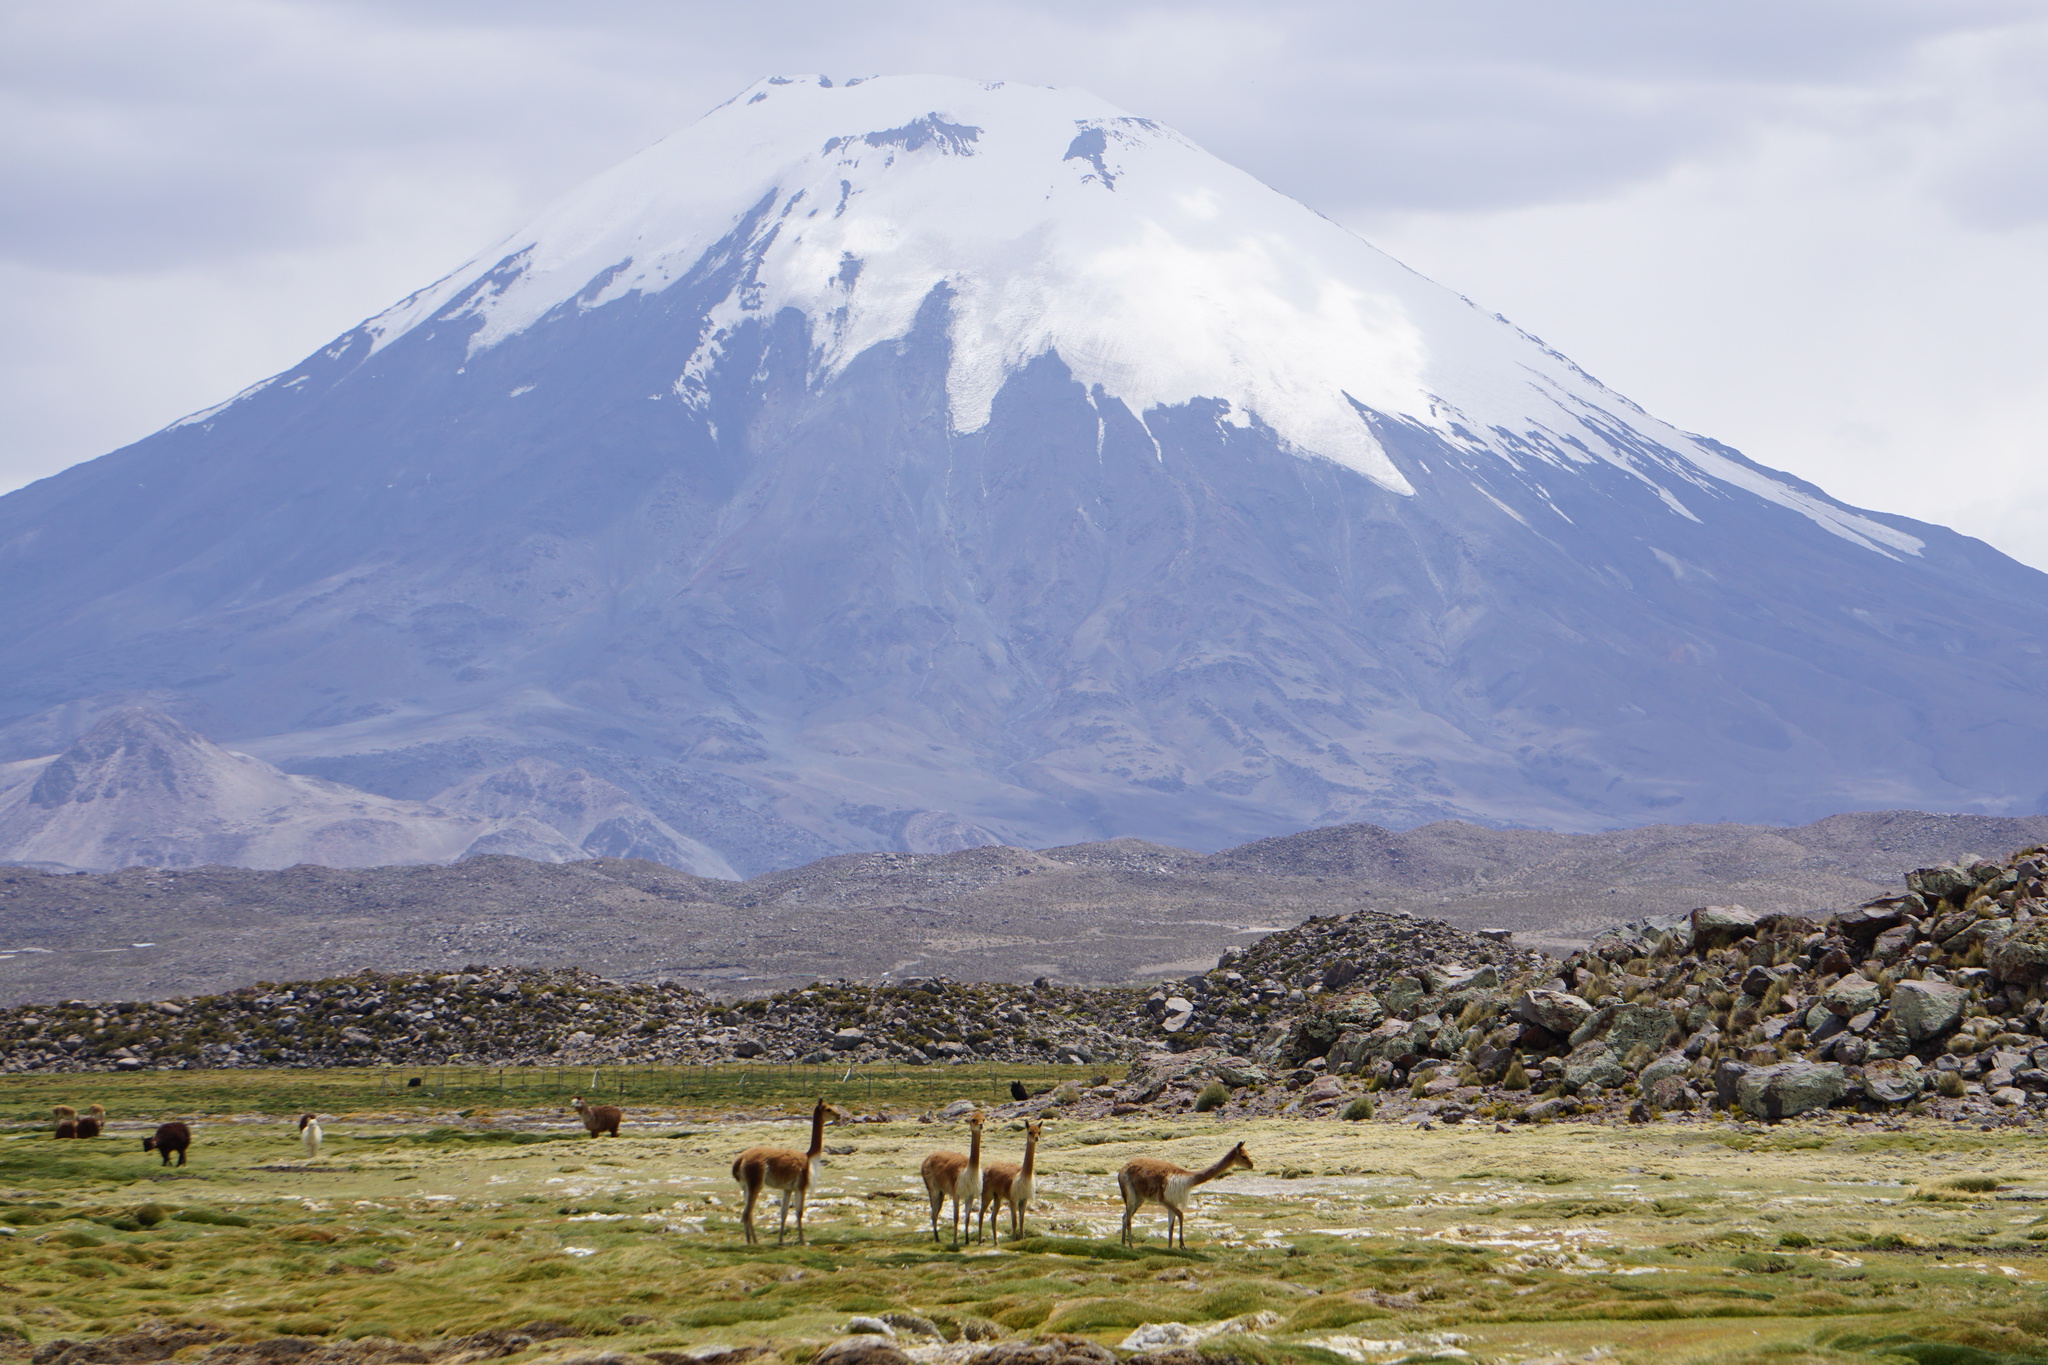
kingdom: Animalia
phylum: Chordata
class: Mammalia
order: Artiodactyla
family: Camelidae
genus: Vicugna
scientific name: Vicugna vicugna
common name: Vicugna
